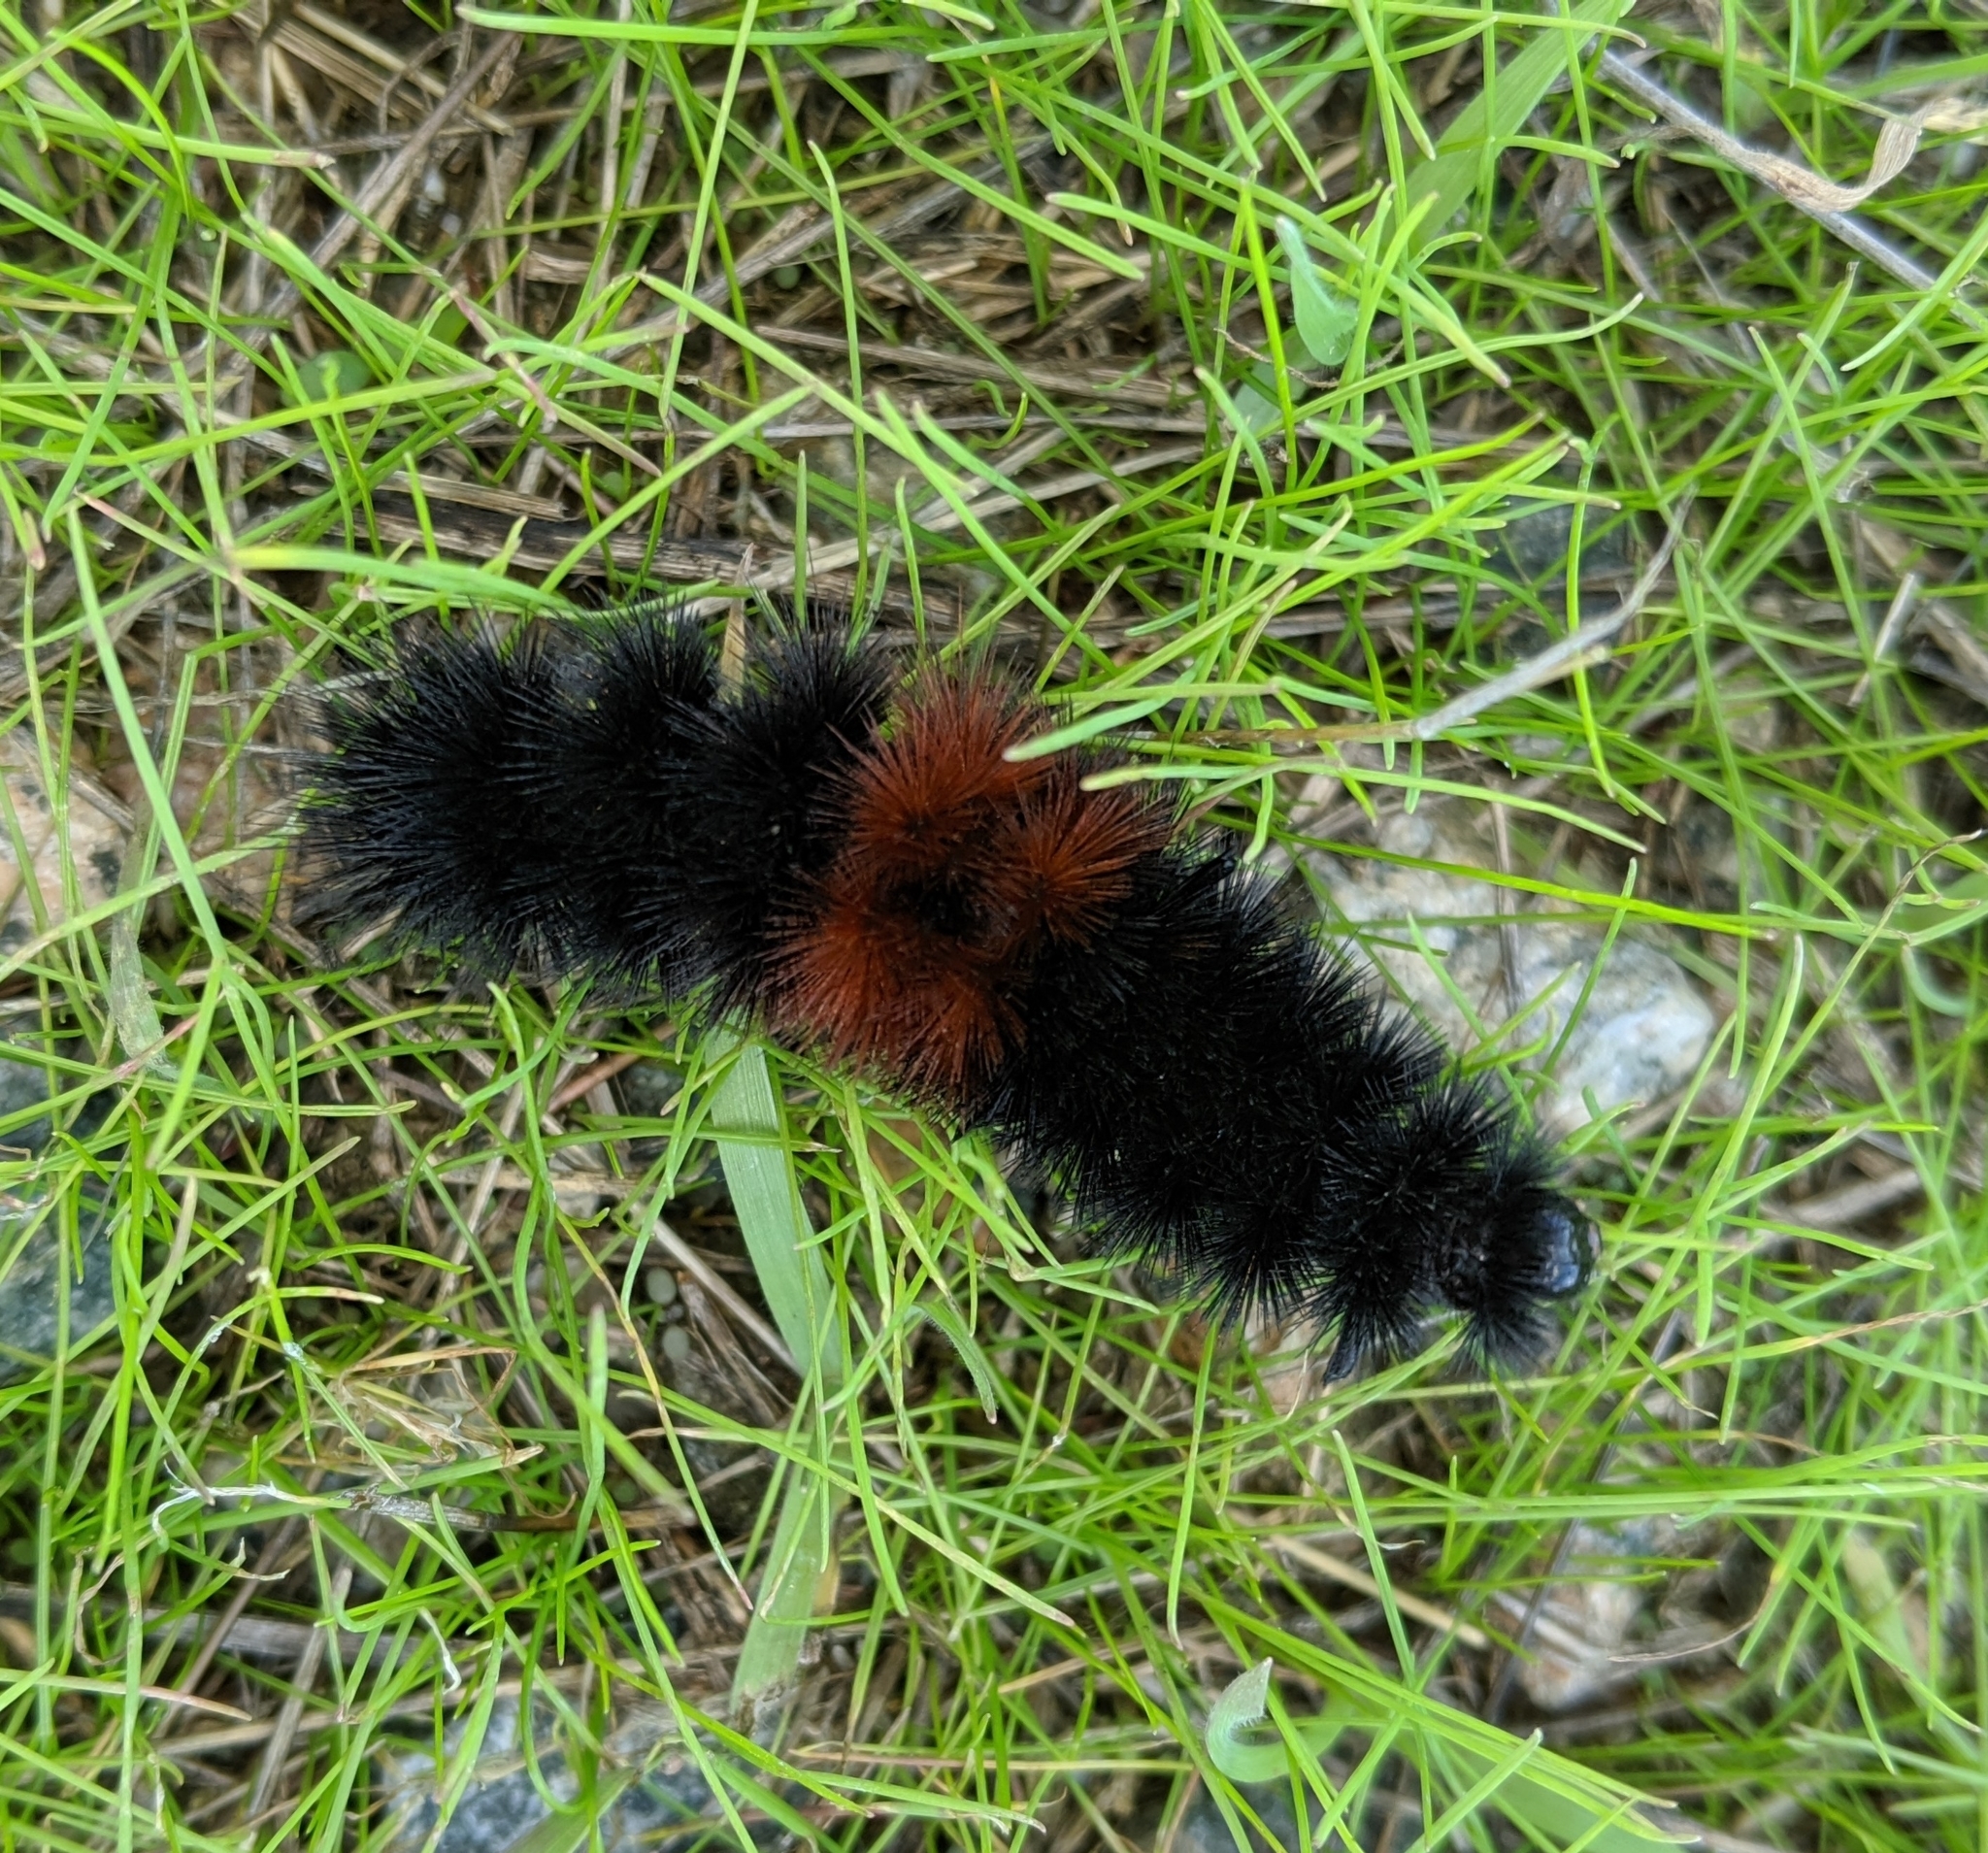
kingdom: Animalia
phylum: Arthropoda
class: Insecta
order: Lepidoptera
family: Erebidae
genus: Pyrrharctia
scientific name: Pyrrharctia isabella
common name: Isabella tiger moth
